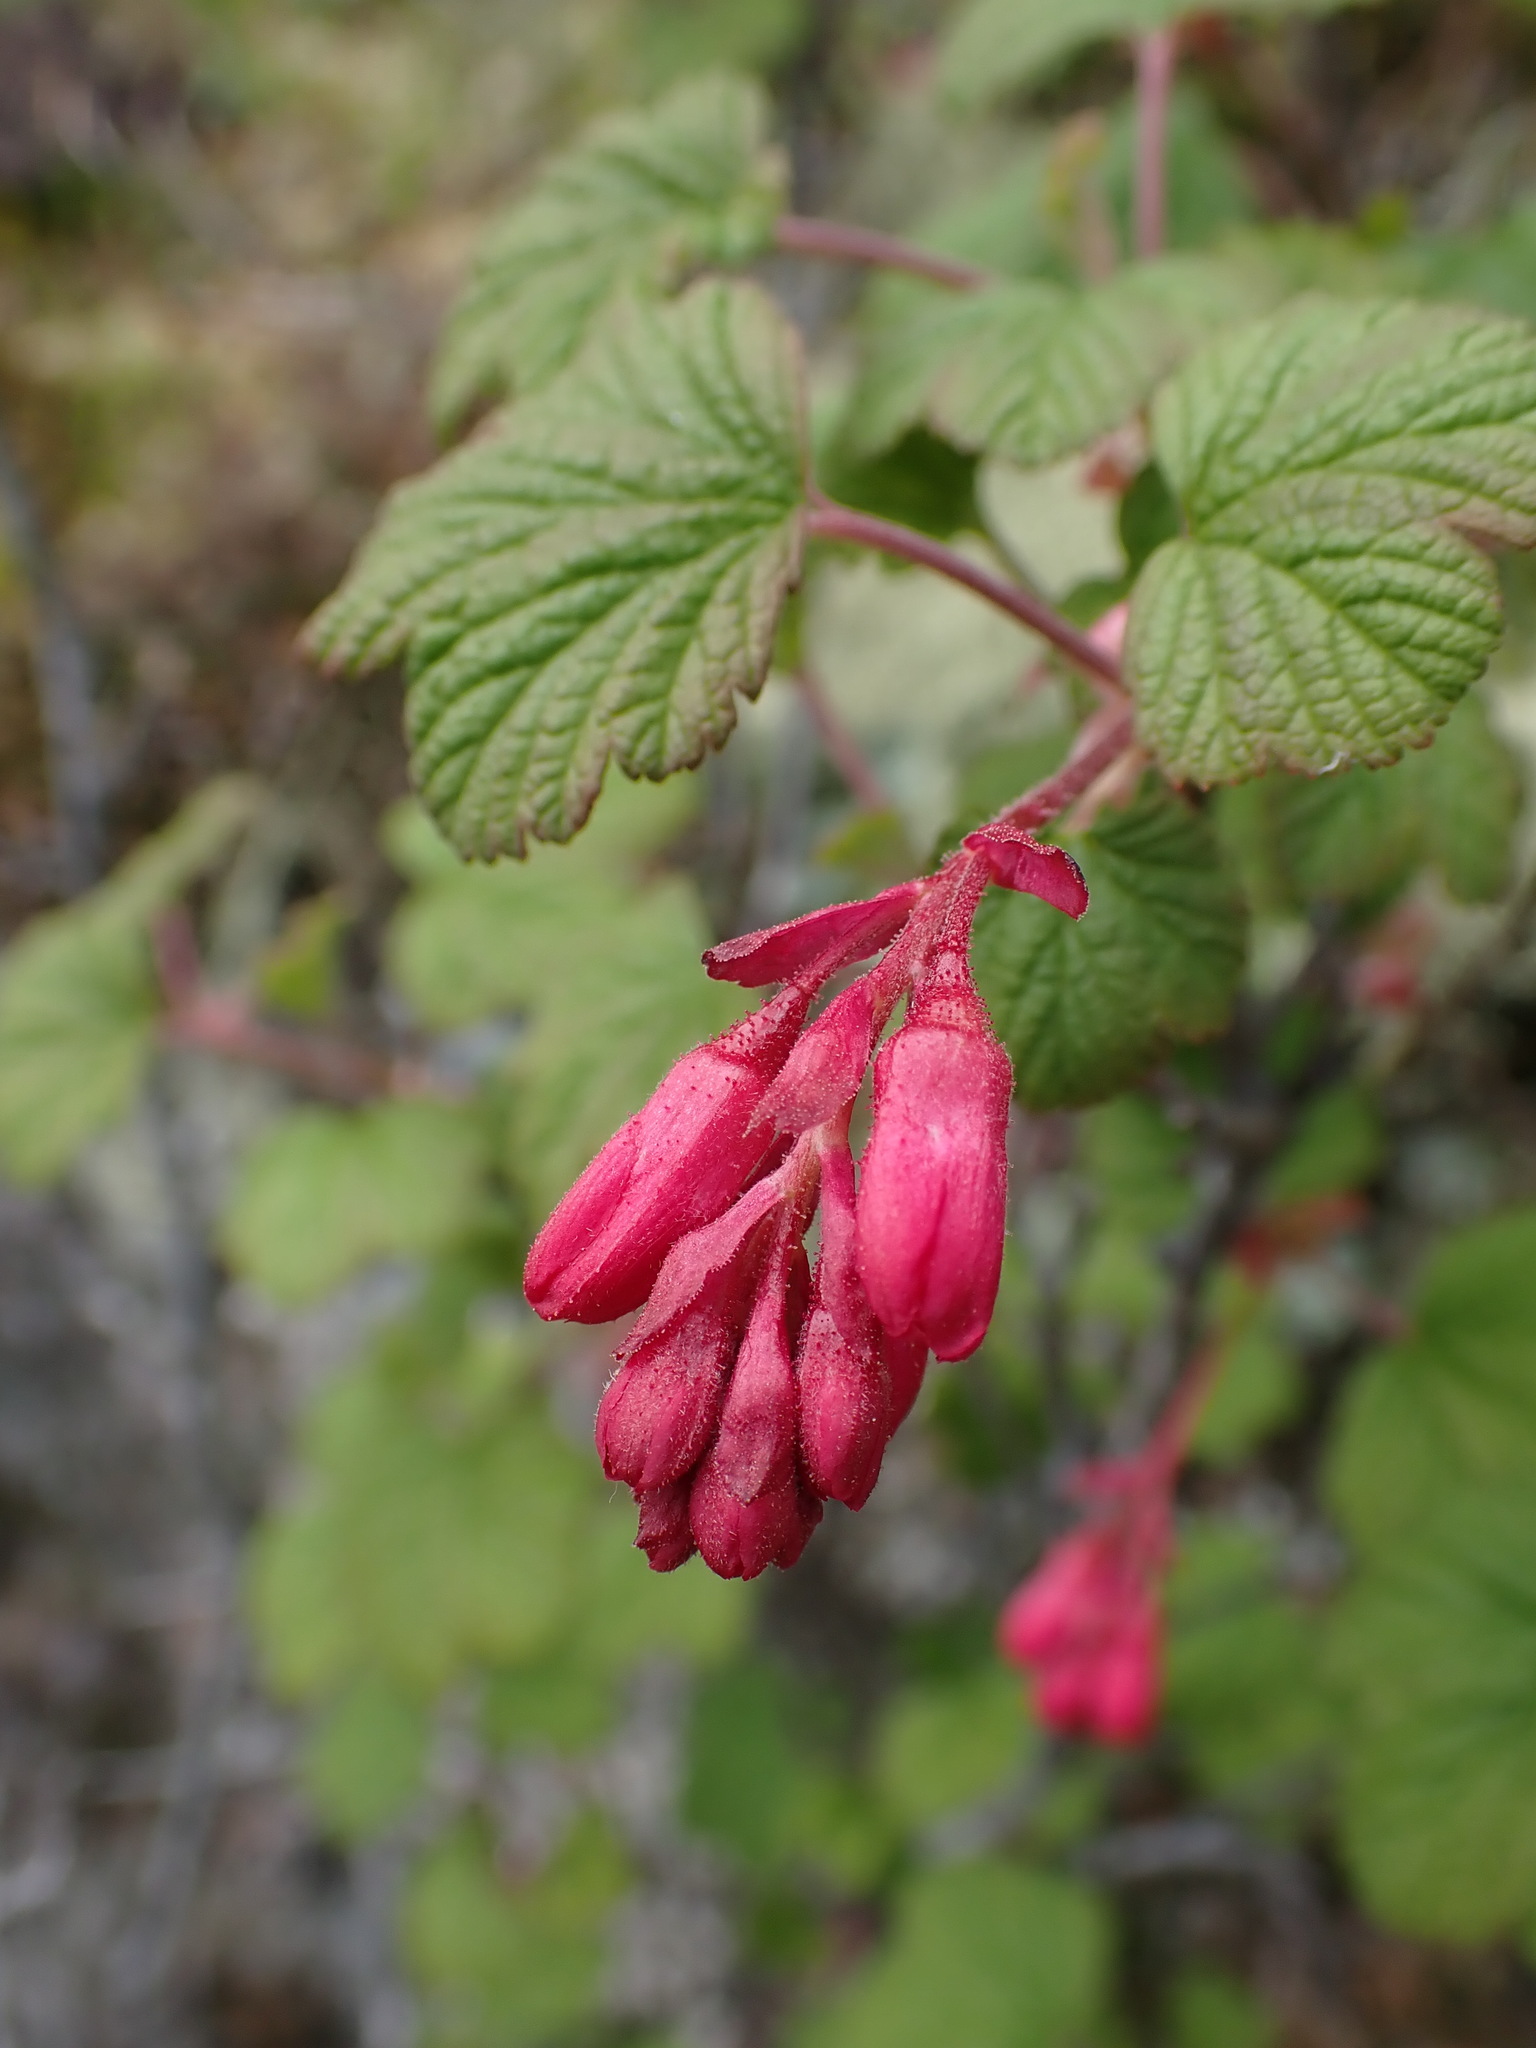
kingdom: Plantae
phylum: Tracheophyta
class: Magnoliopsida
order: Saxifragales
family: Grossulariaceae
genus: Ribes
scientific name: Ribes sanguineum
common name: Flowering currant
